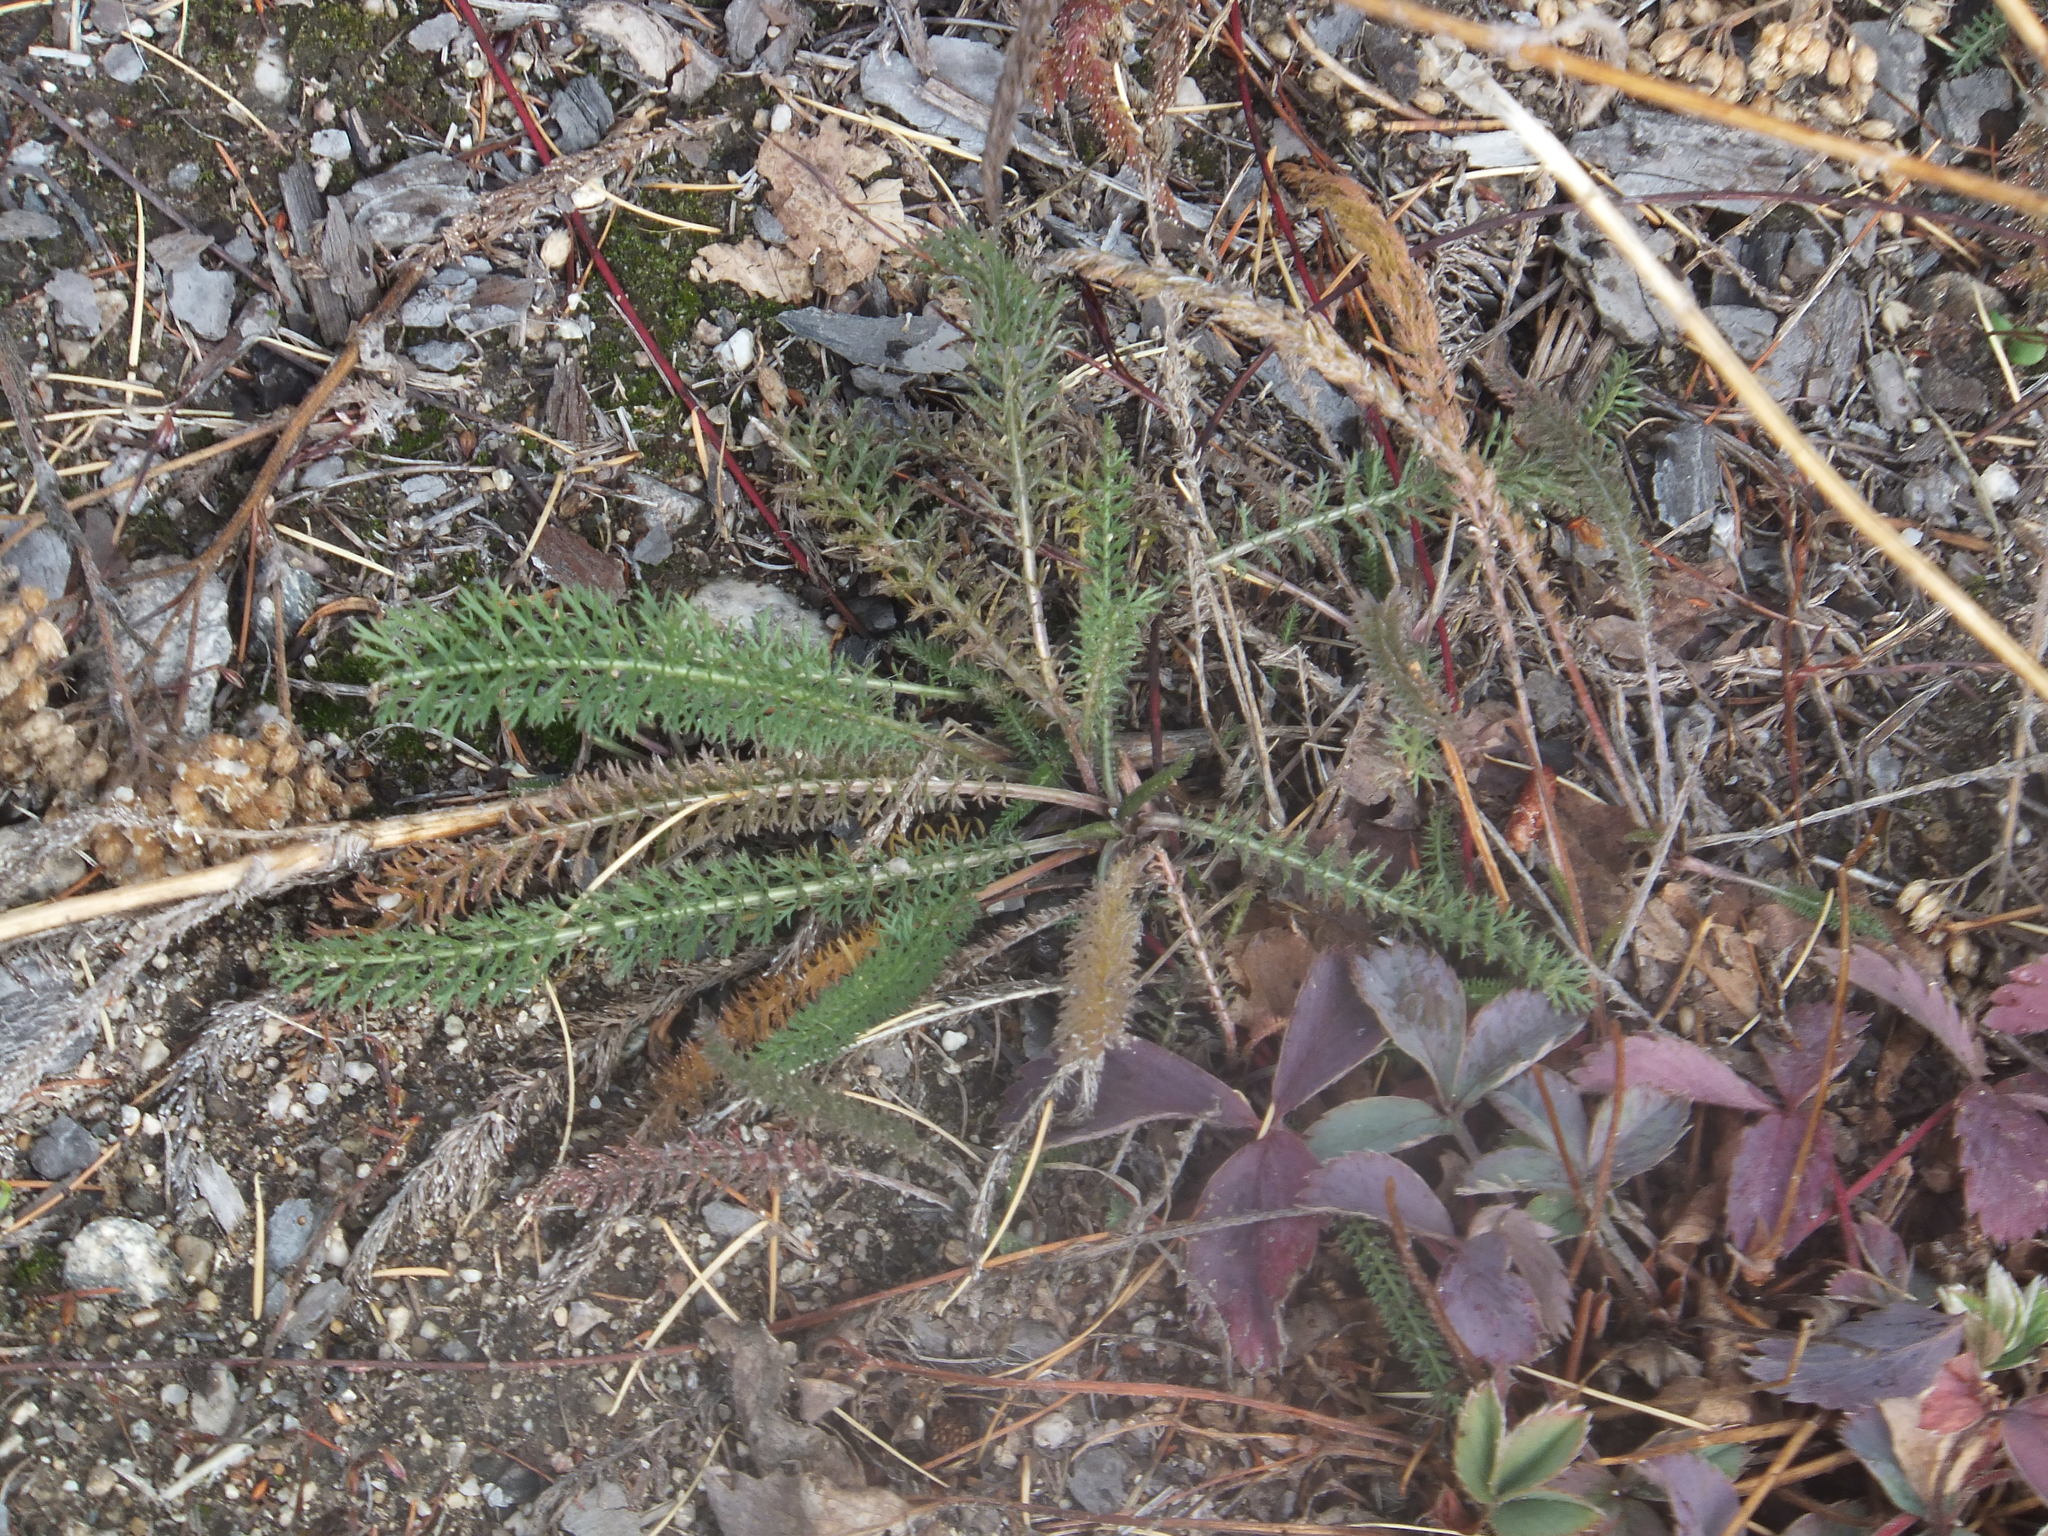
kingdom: Plantae
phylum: Tracheophyta
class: Magnoliopsida
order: Asterales
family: Asteraceae
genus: Achillea
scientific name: Achillea millefolium
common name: Yarrow
